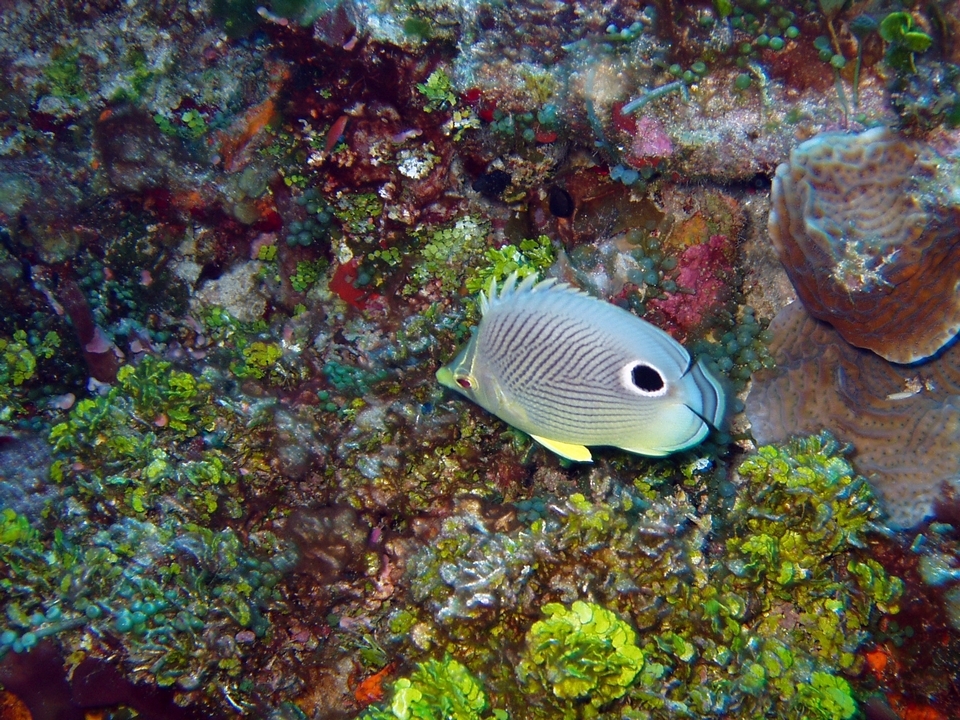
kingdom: Animalia
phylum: Chordata
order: Perciformes
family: Chaetodontidae
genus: Chaetodon
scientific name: Chaetodon capistratus
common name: Kete
